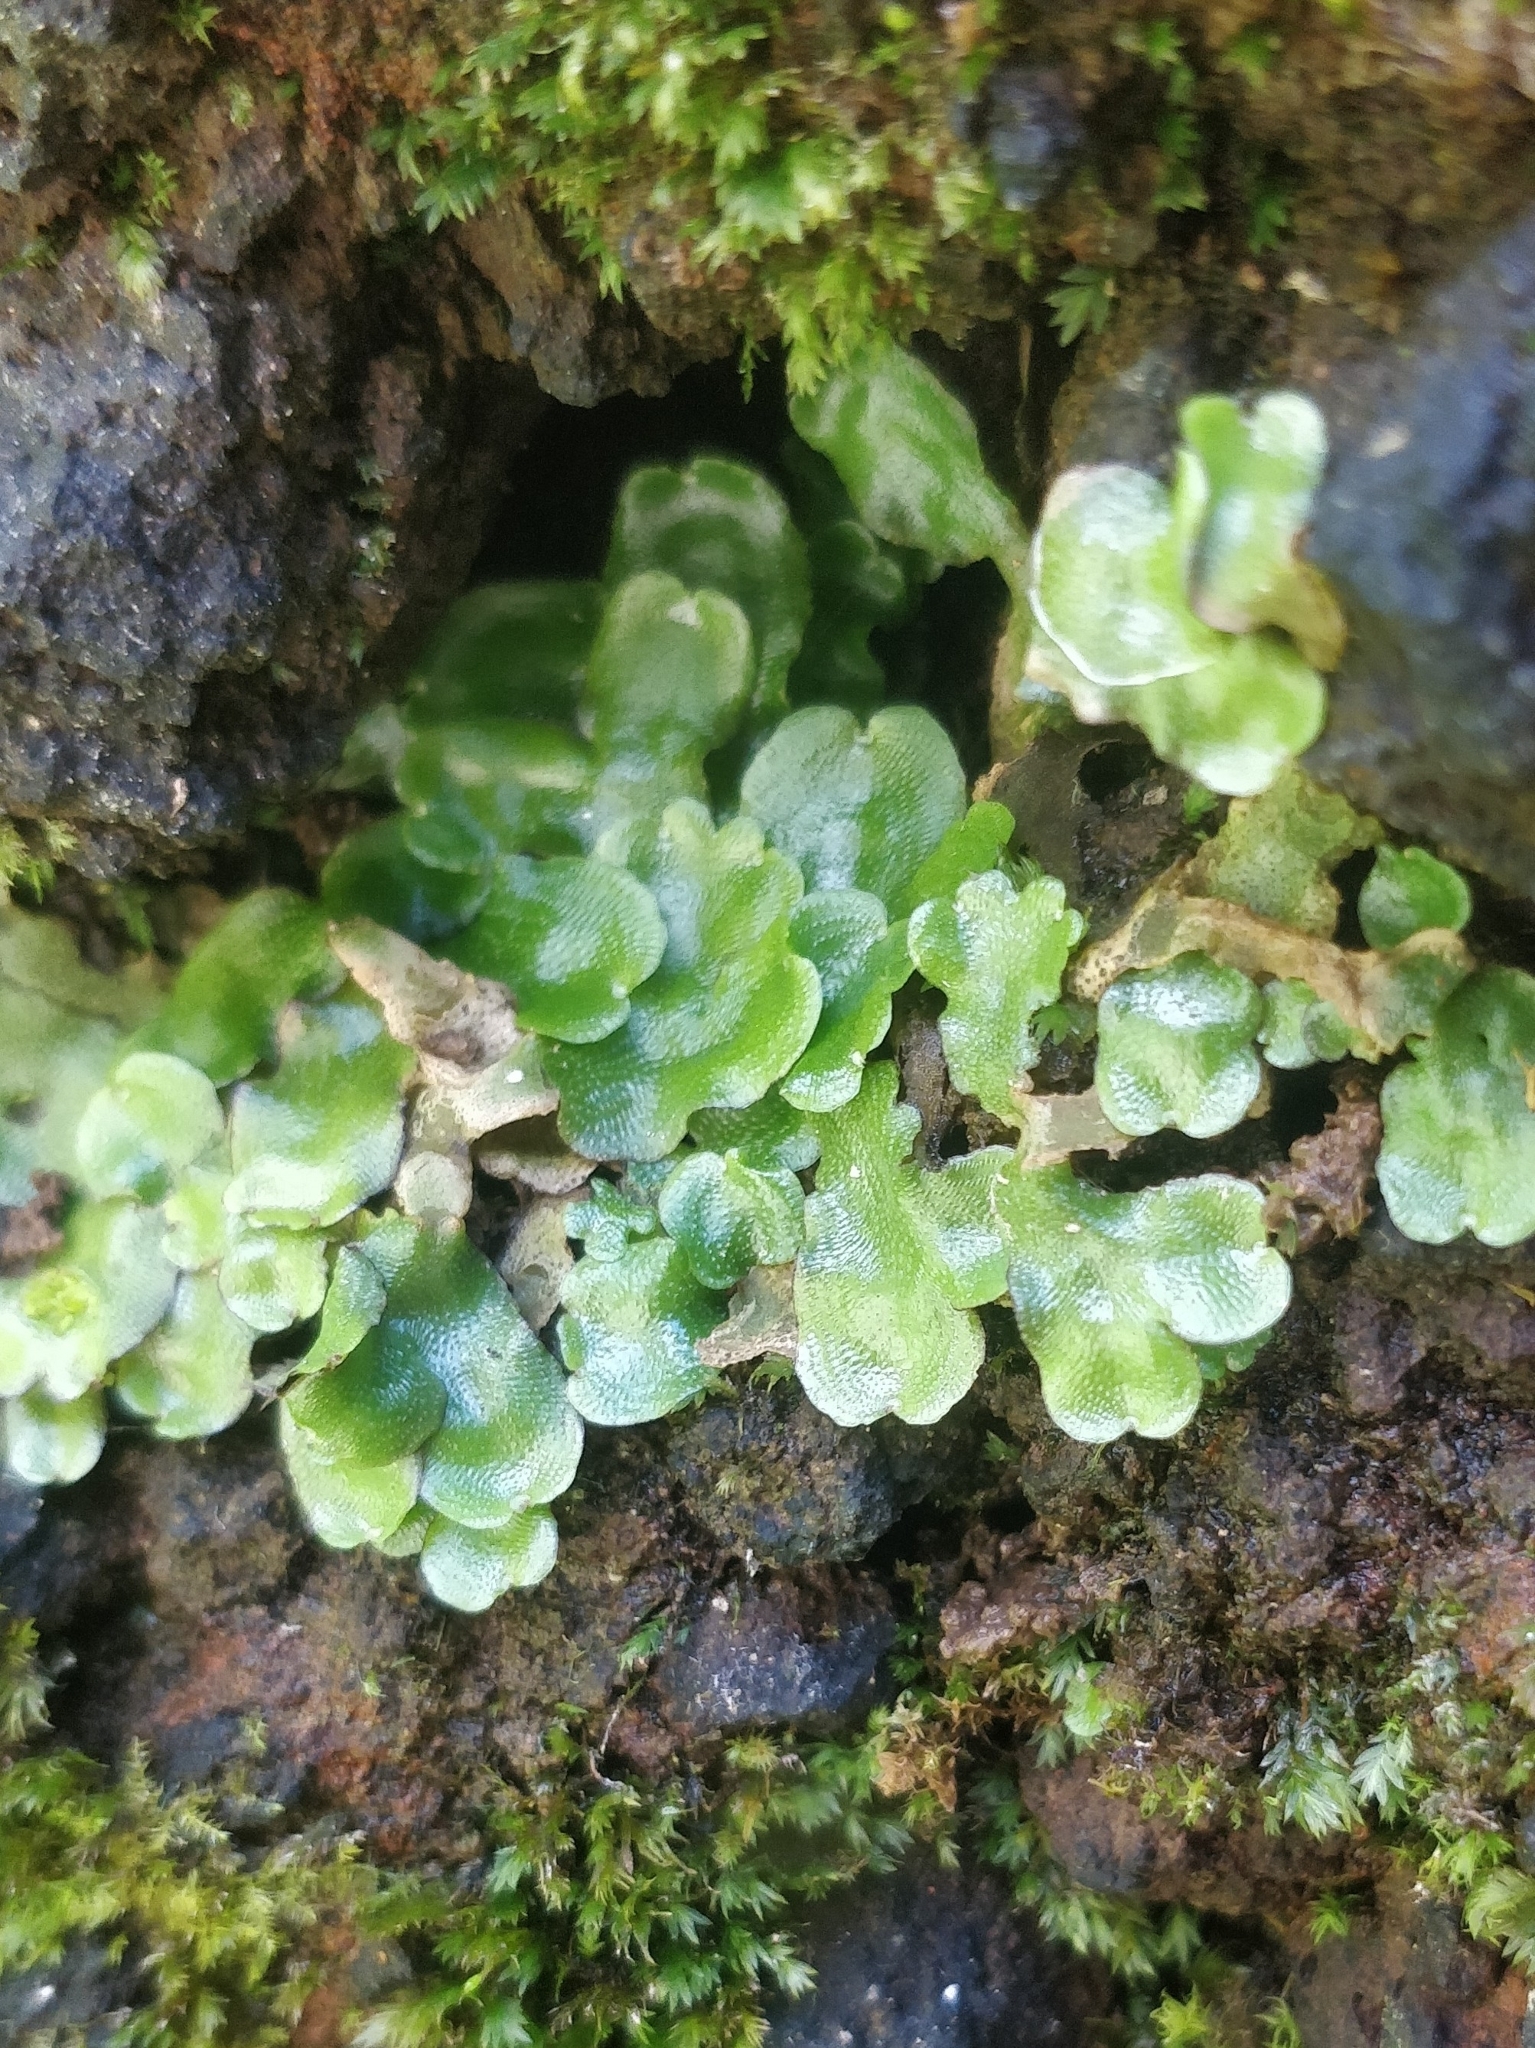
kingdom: Plantae
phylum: Marchantiophyta
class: Marchantiopsida
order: Lunulariales
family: Lunulariaceae
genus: Lunularia
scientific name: Lunularia cruciata
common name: Crescent-cup liverwort
